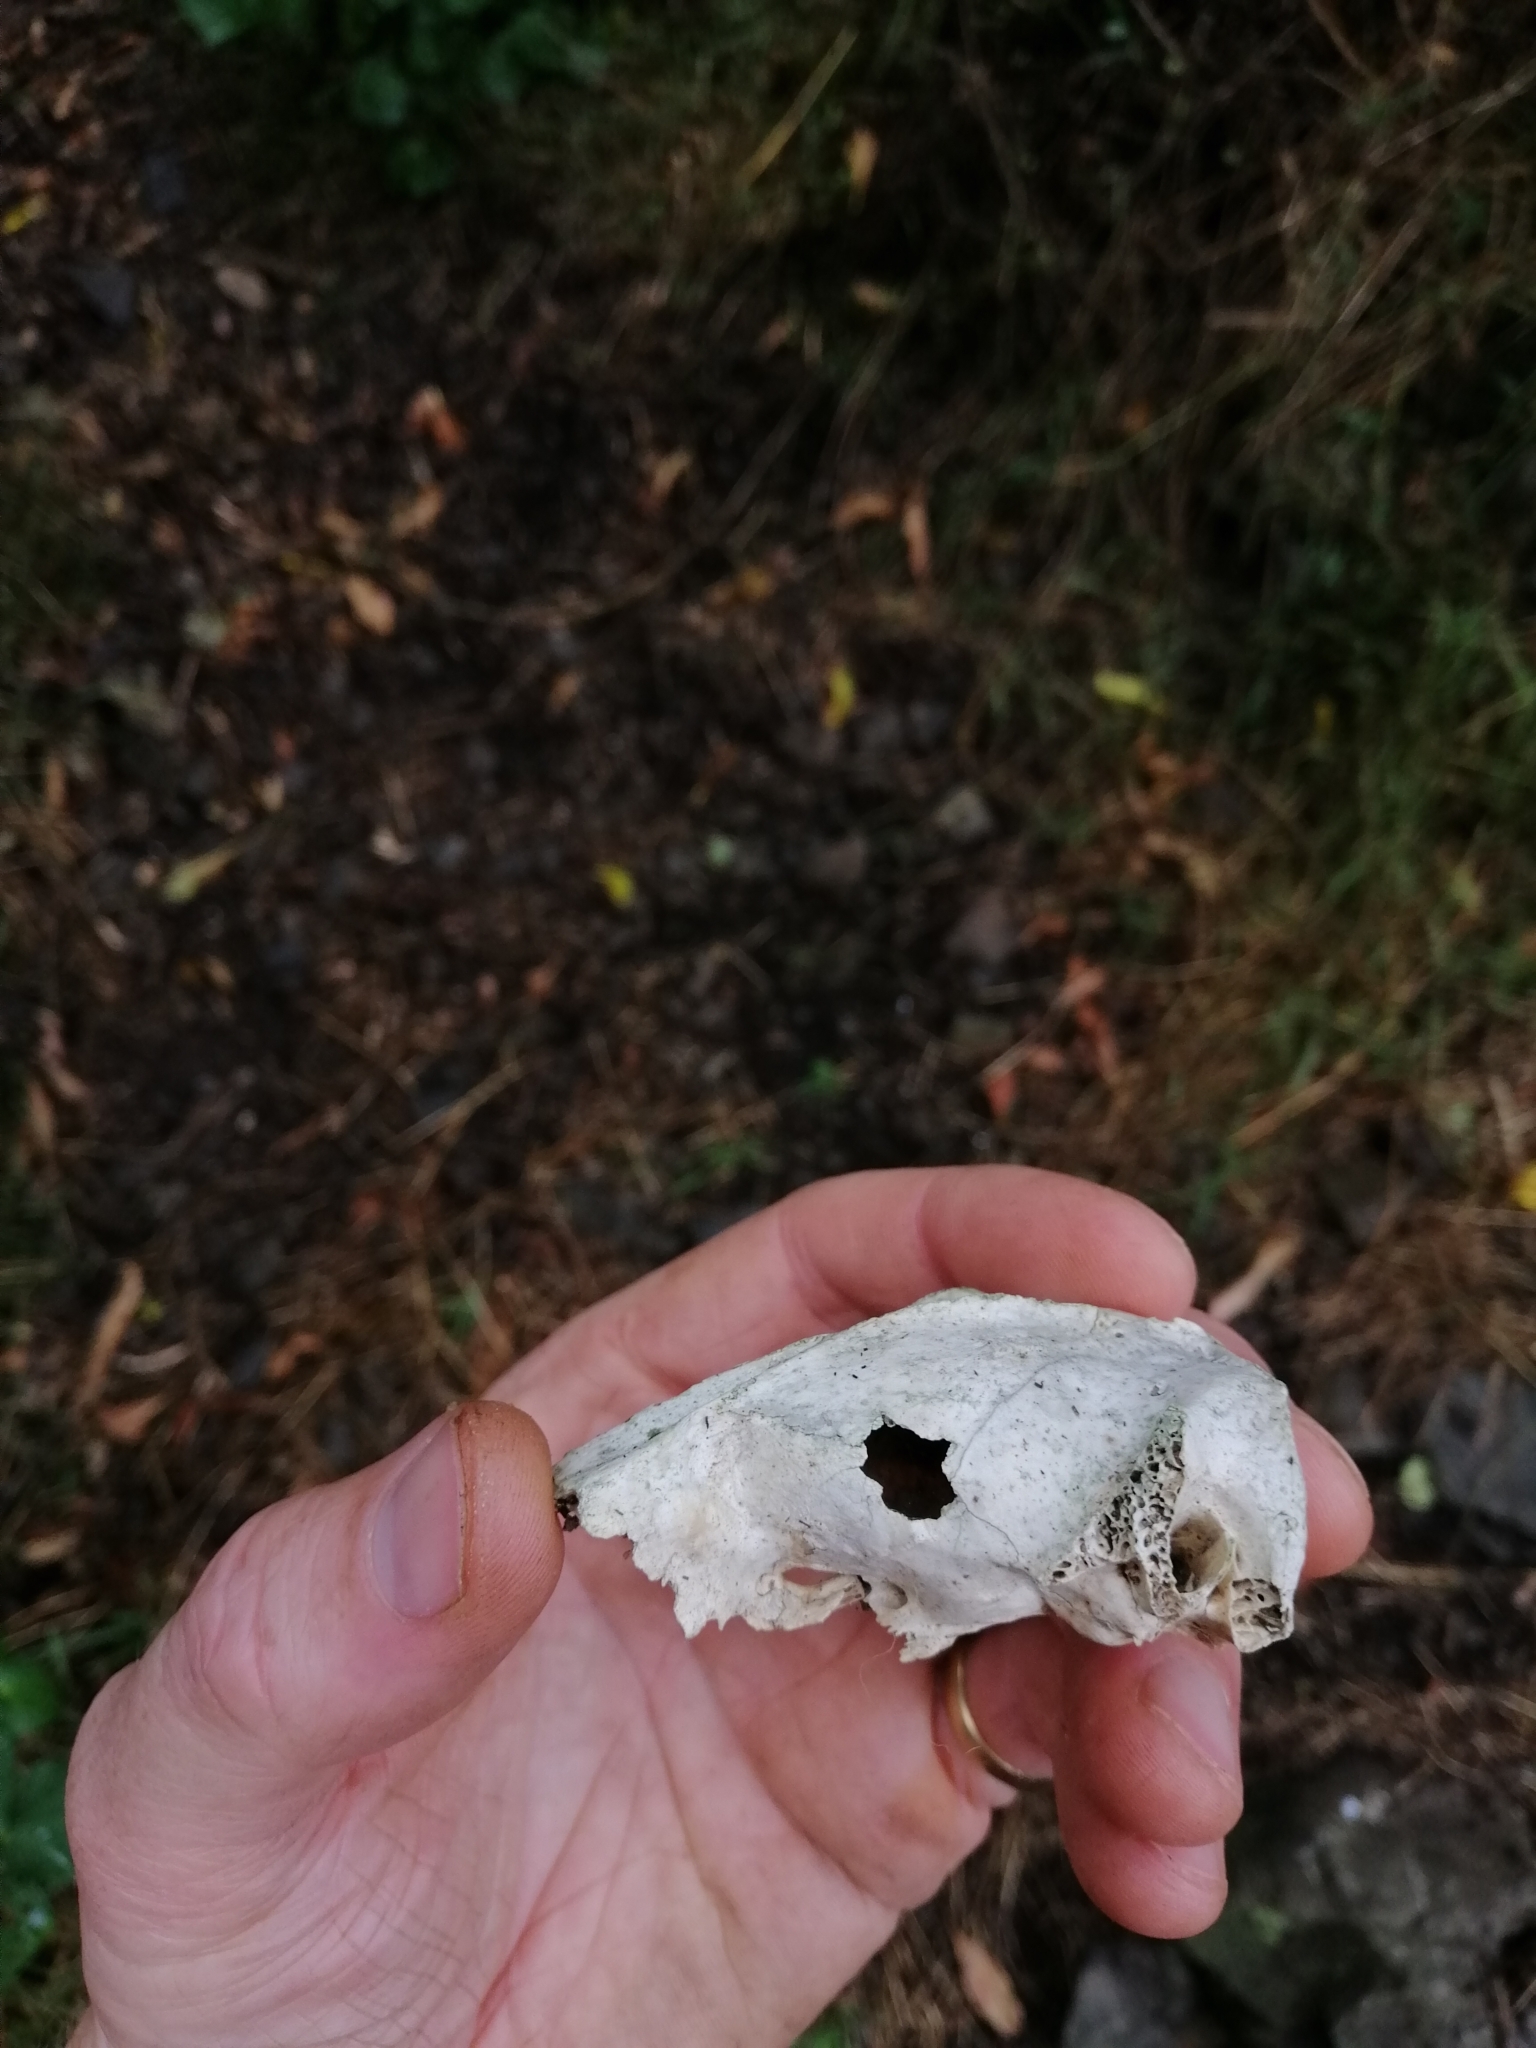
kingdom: Animalia
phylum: Chordata
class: Mammalia
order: Diprotodontia
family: Phalangeridae
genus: Trichosurus
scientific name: Trichosurus vulpecula
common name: Common brushtail
